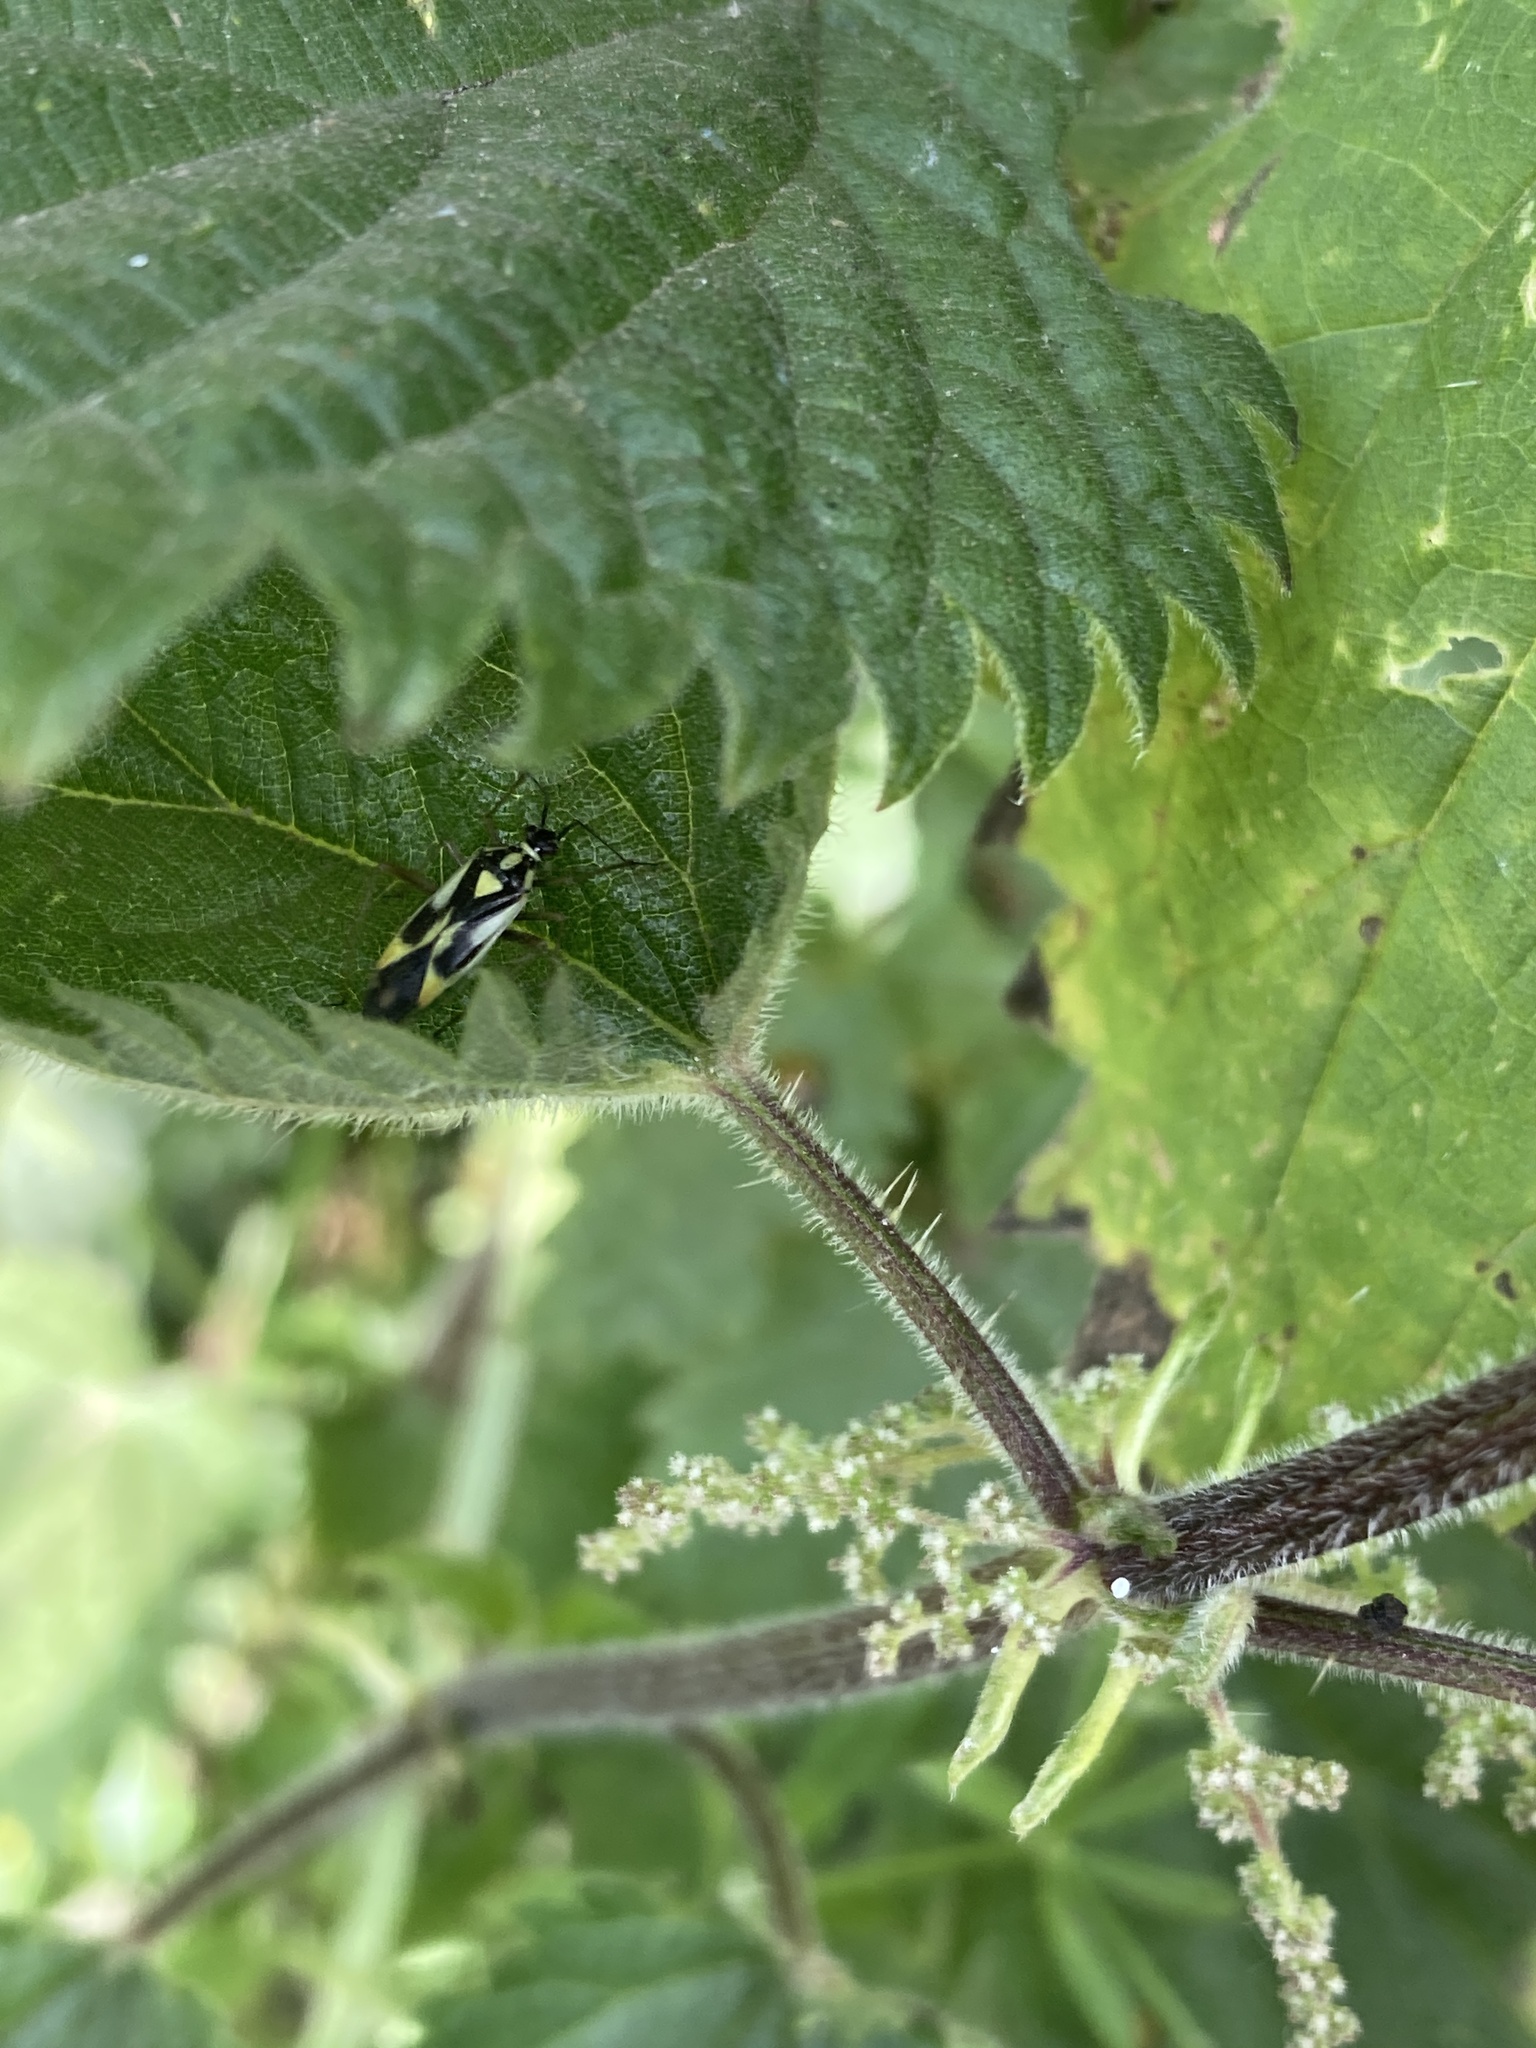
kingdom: Animalia
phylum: Arthropoda
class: Insecta
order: Hemiptera
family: Miridae
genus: Grypocoris
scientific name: Grypocoris stysi
